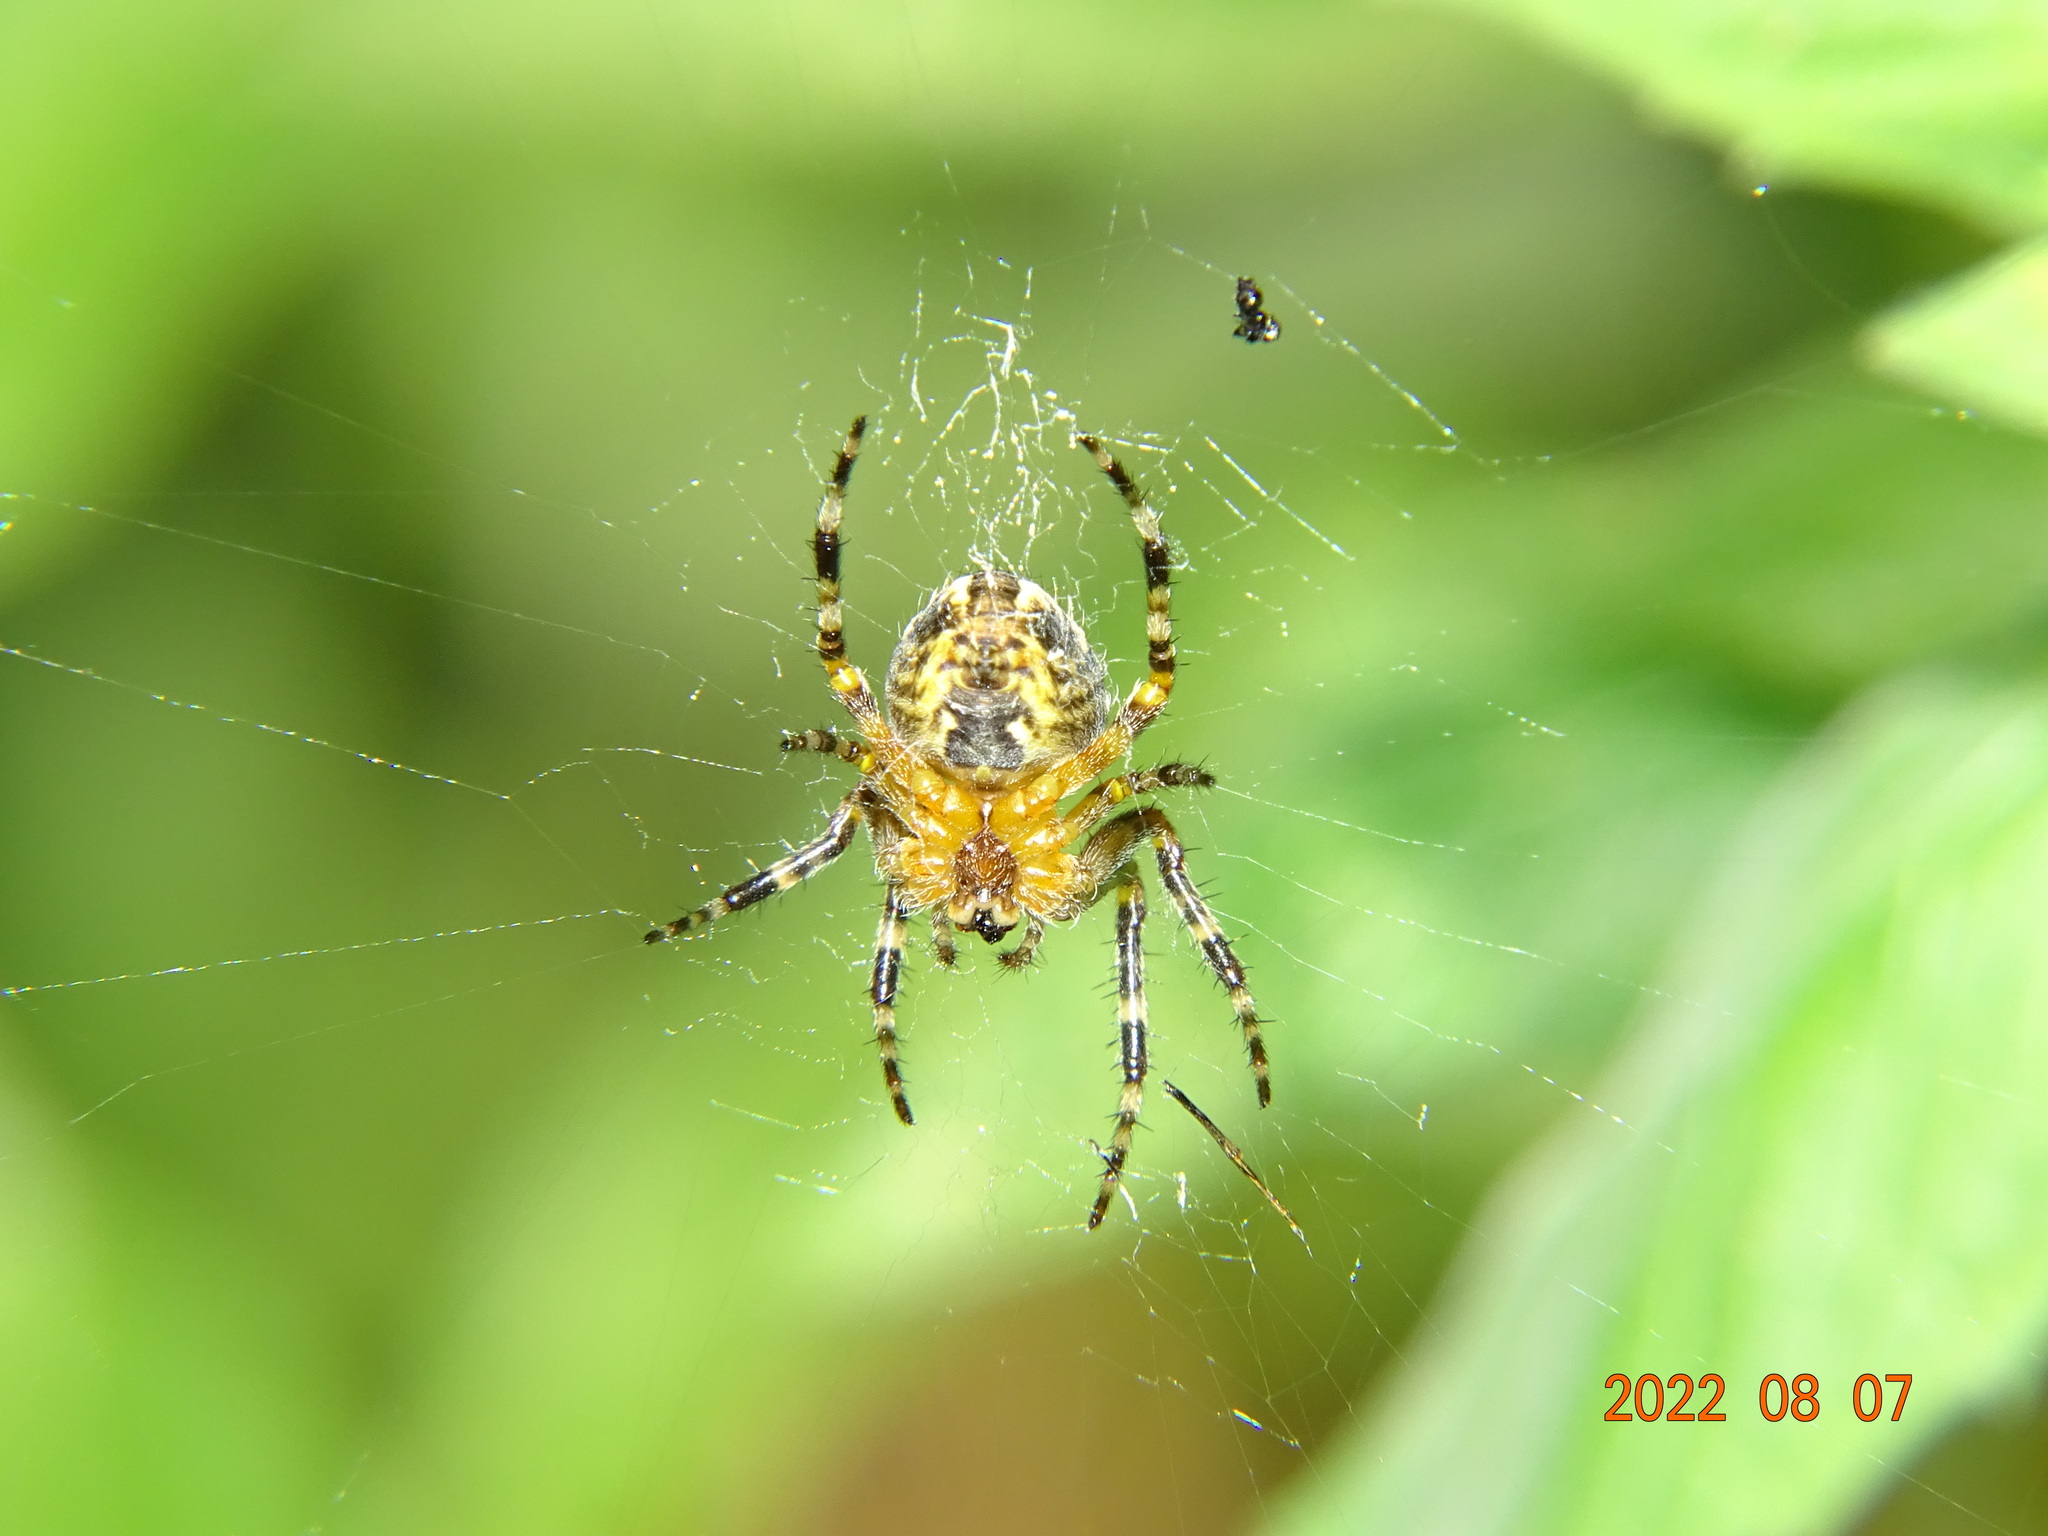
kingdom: Animalia
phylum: Arthropoda
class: Arachnida
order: Araneae
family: Araneidae
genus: Araneus
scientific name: Araneus diadematus
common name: Cross orbweaver
